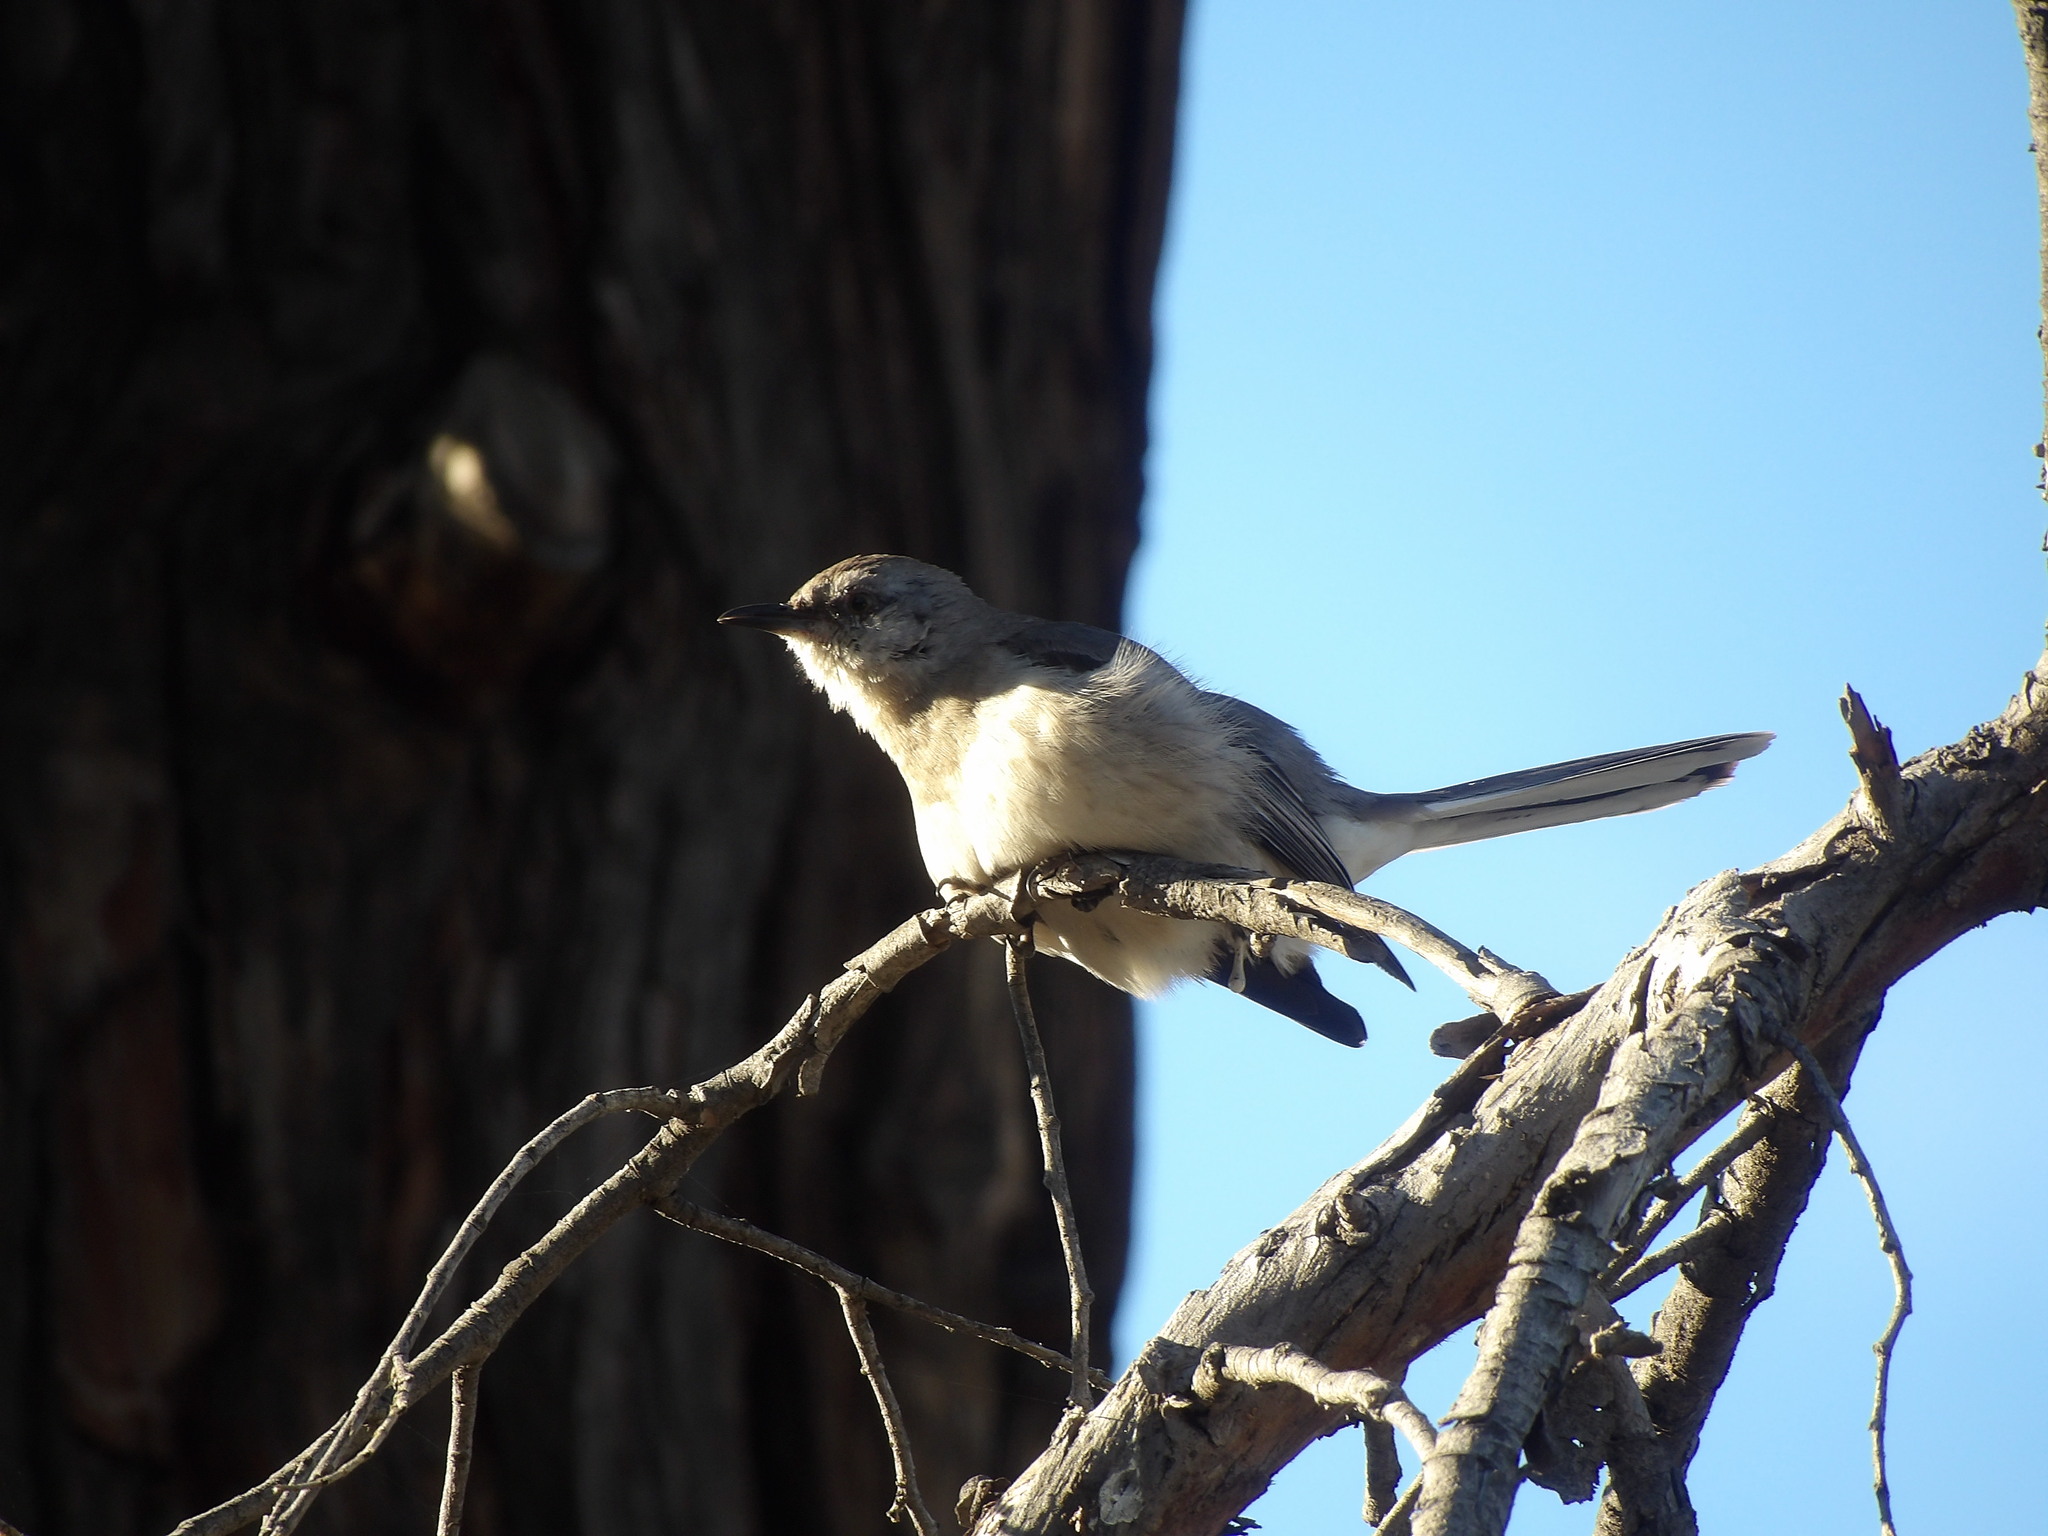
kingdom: Animalia
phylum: Chordata
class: Aves
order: Passeriformes
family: Mimidae
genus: Mimus
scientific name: Mimus polyglottos
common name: Northern mockingbird
